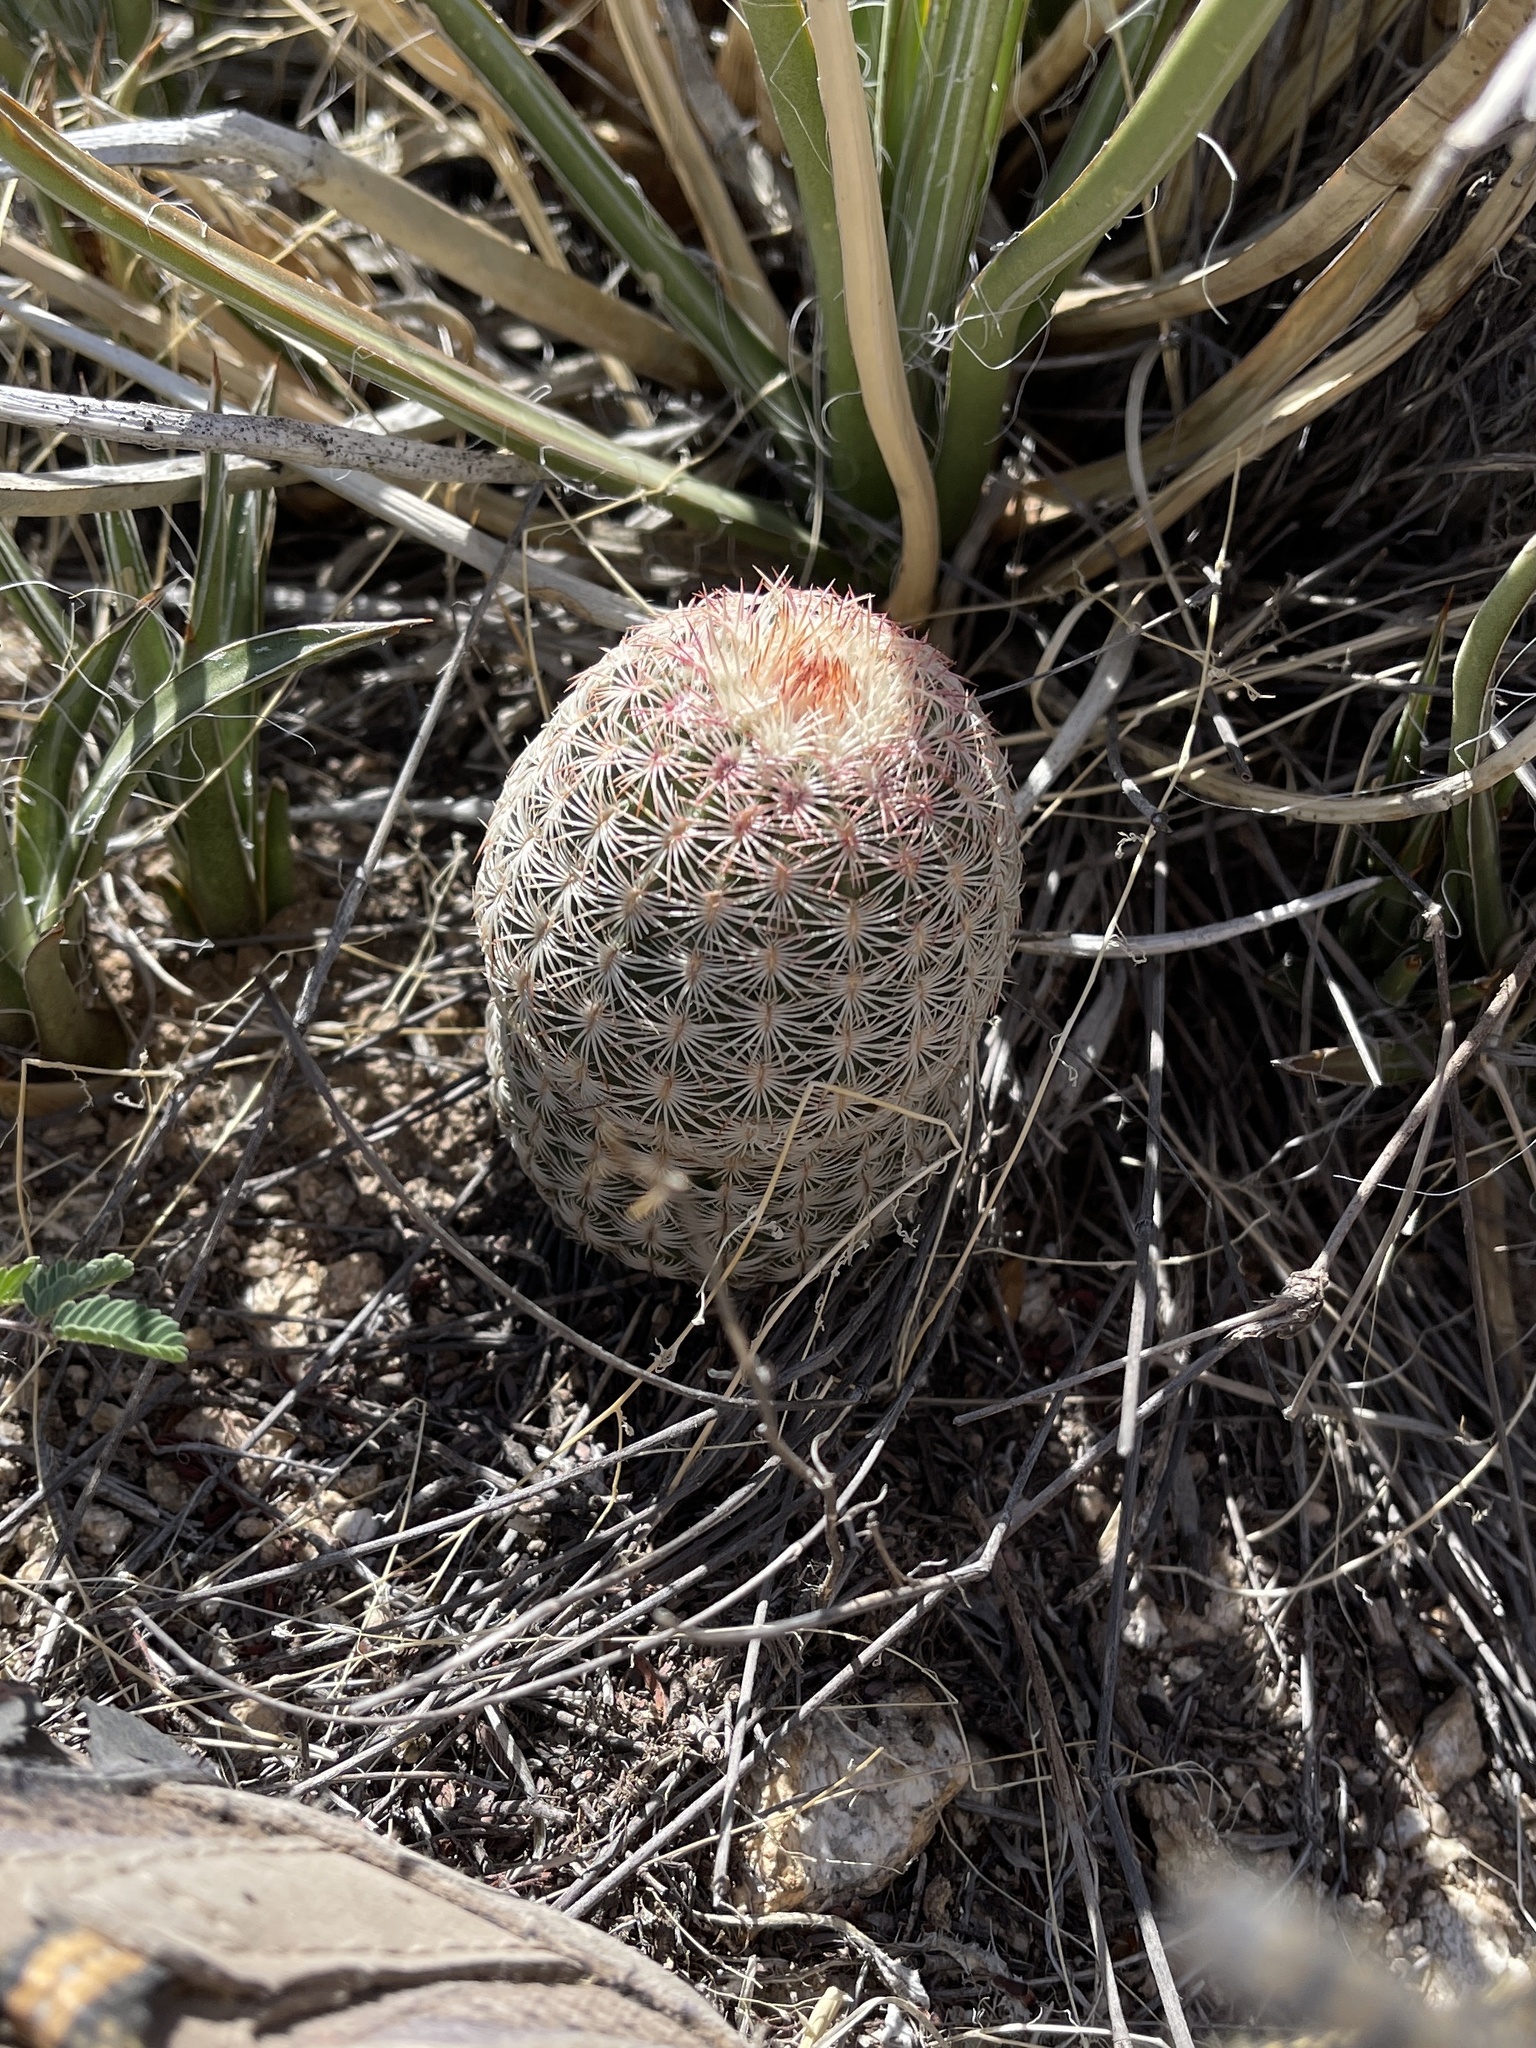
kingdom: Plantae
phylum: Tracheophyta
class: Magnoliopsida
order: Caryophyllales
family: Cactaceae
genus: Echinocereus
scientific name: Echinocereus rigidissimus
